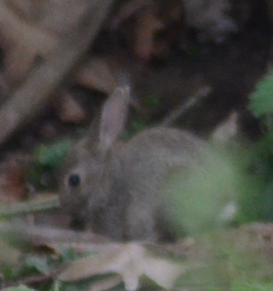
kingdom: Animalia
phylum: Chordata
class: Mammalia
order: Lagomorpha
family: Leporidae
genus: Oryctolagus
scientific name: Oryctolagus cuniculus
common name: European rabbit
